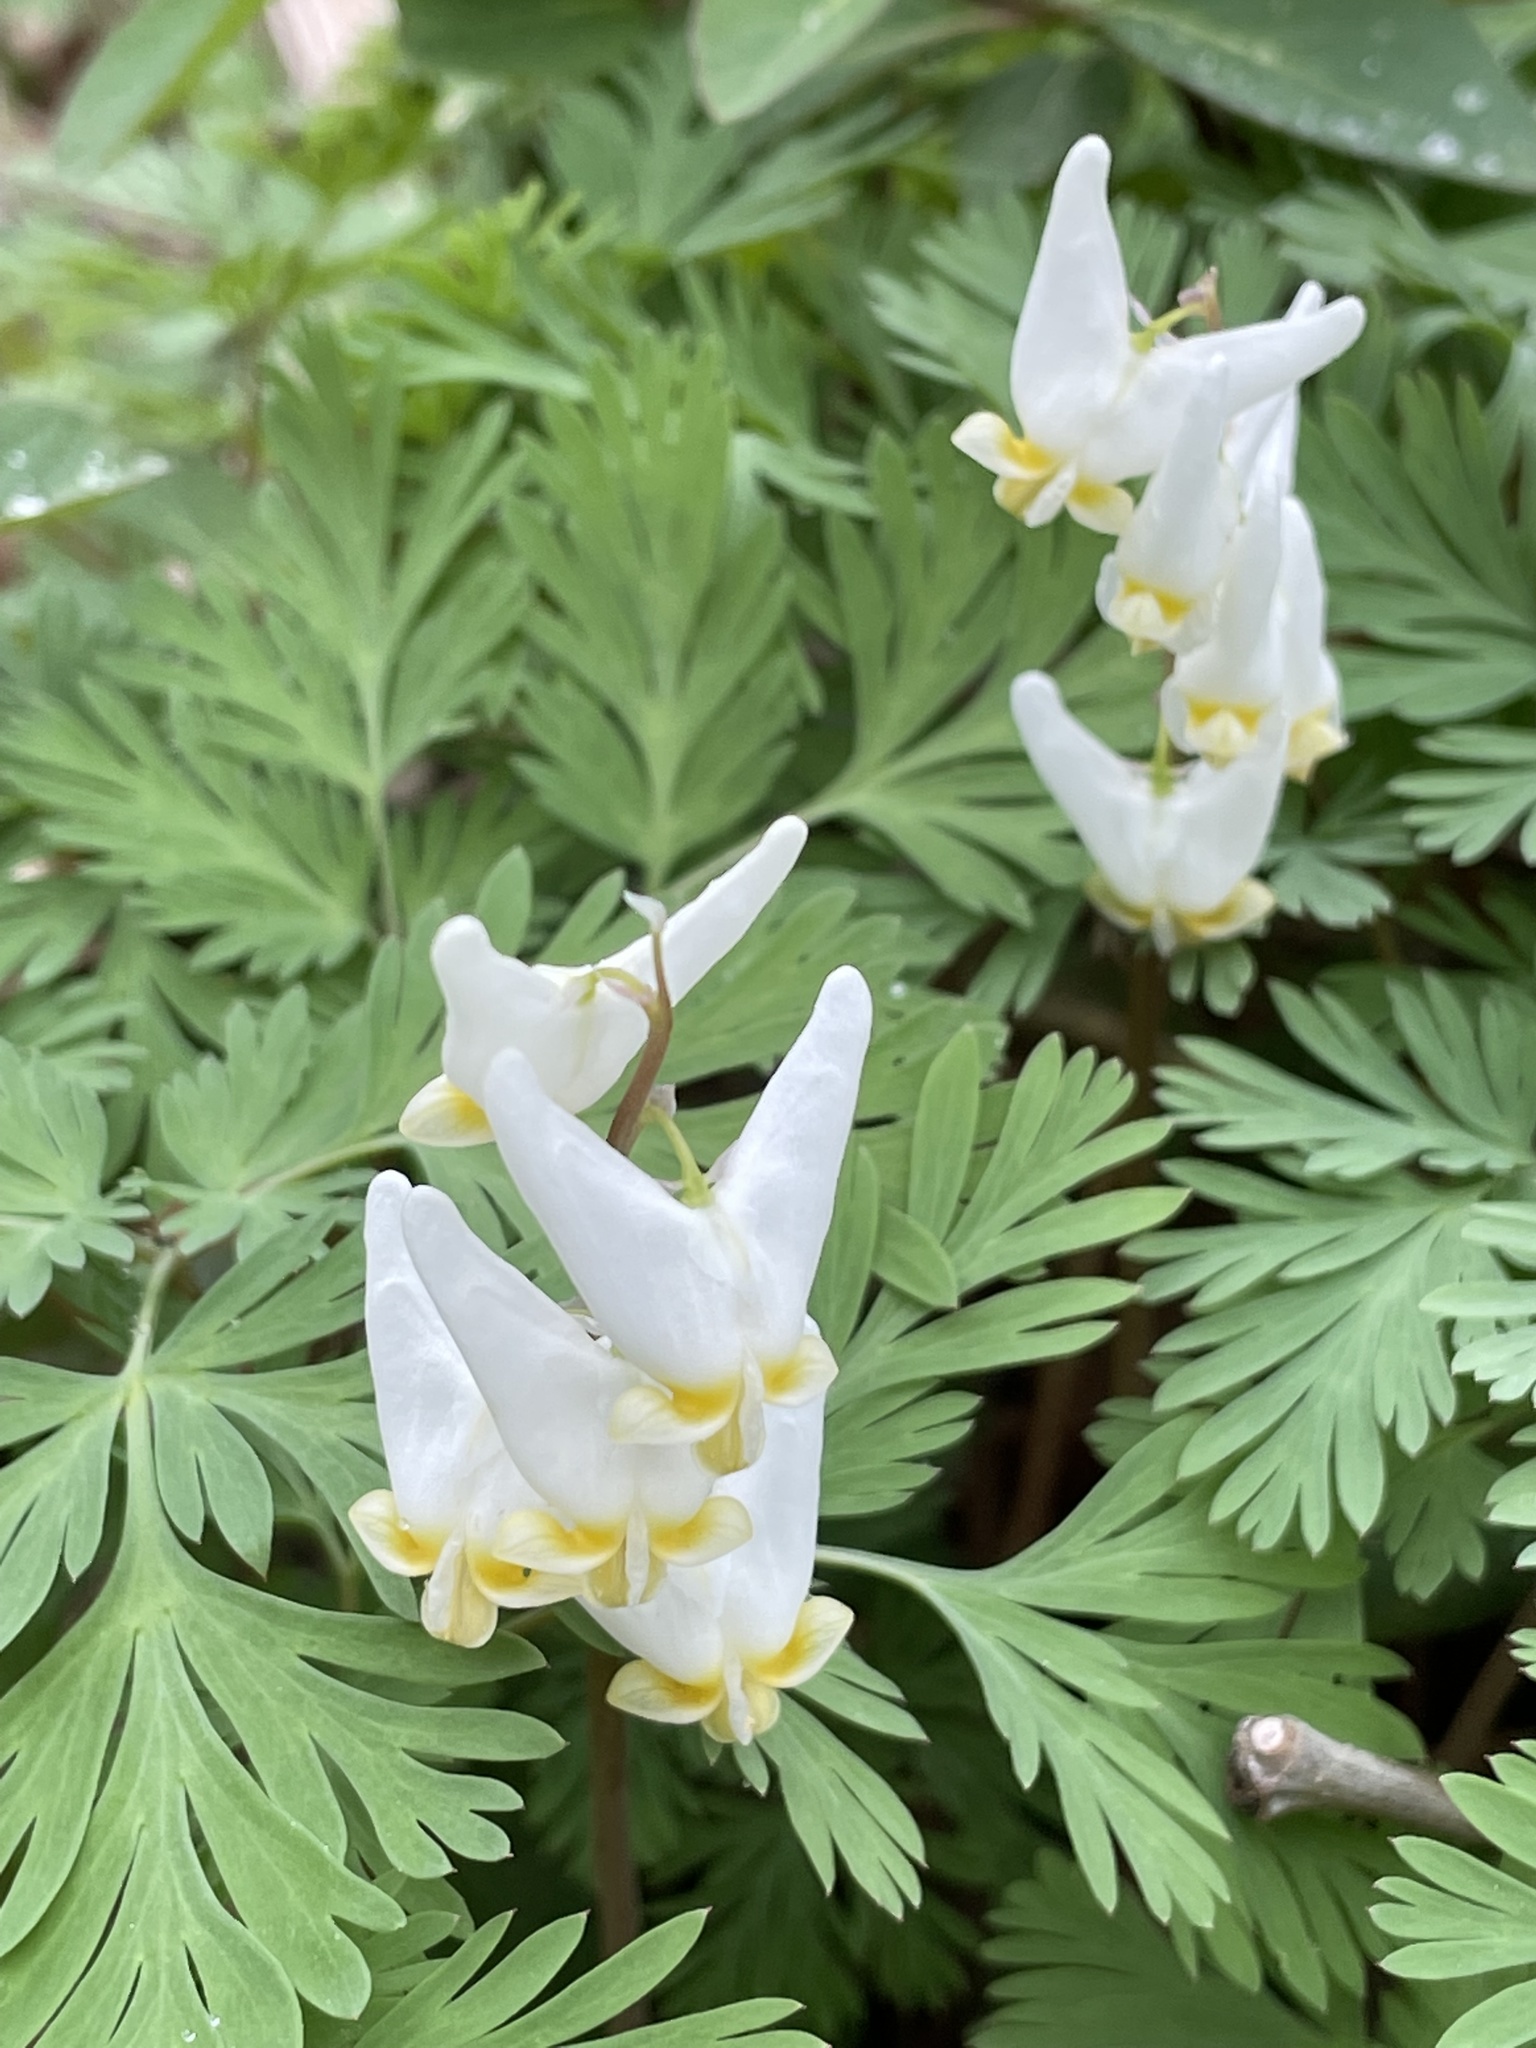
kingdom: Plantae
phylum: Tracheophyta
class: Magnoliopsida
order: Ranunculales
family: Papaveraceae
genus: Dicentra
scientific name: Dicentra cucullaria
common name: Dutchman's breeches
